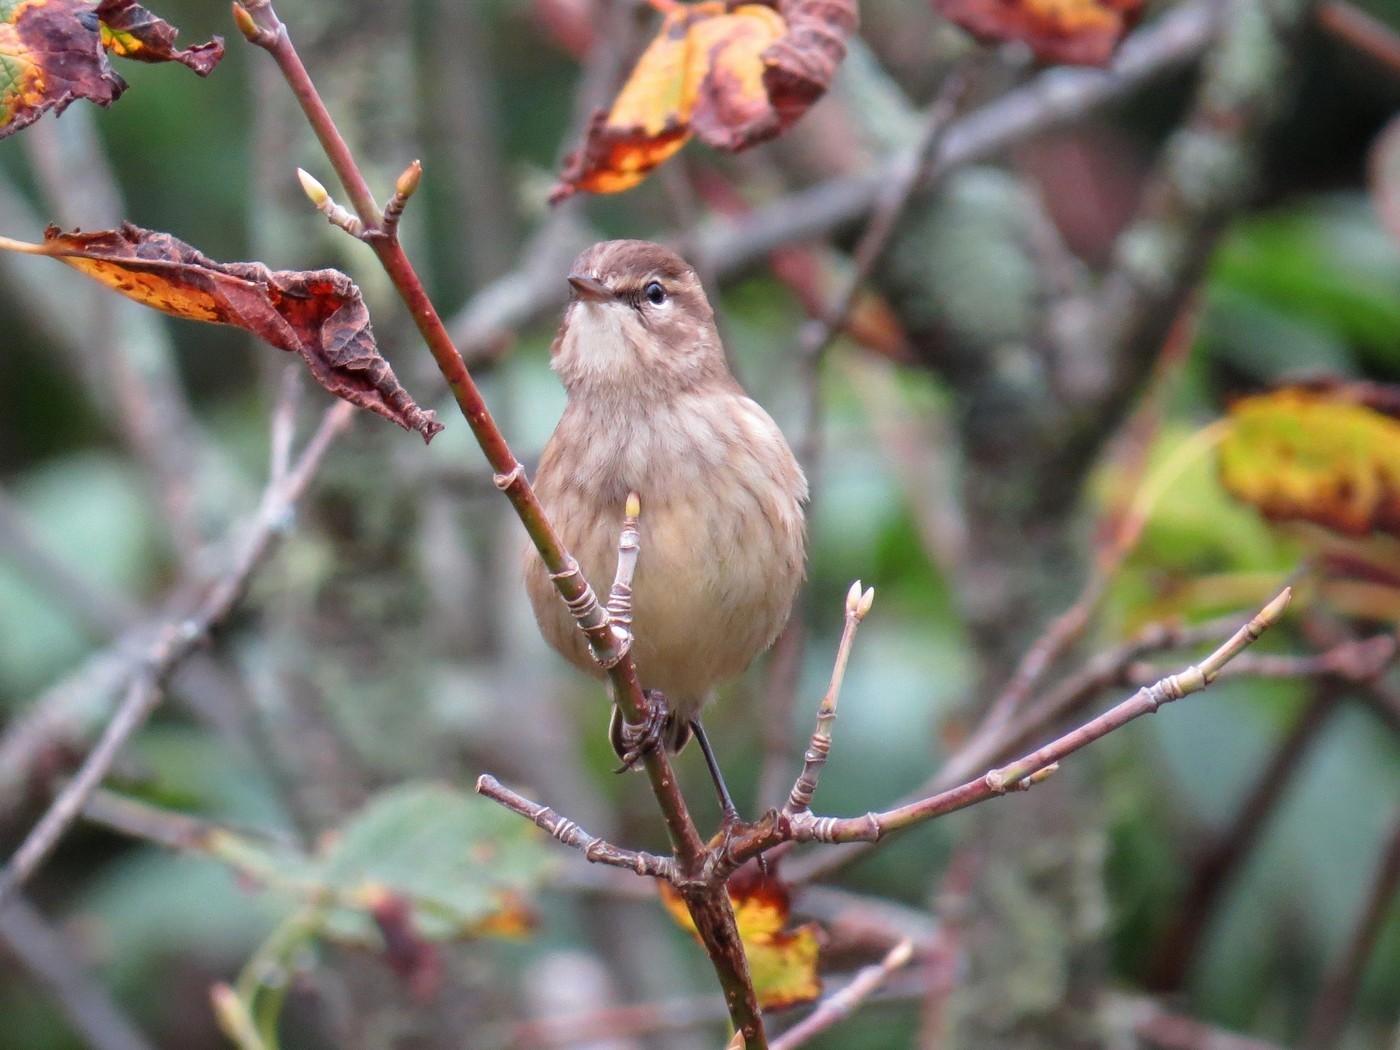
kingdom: Animalia
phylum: Chordata
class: Aves
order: Passeriformes
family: Parulidae
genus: Setophaga
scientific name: Setophaga palmarum
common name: Palm warbler
